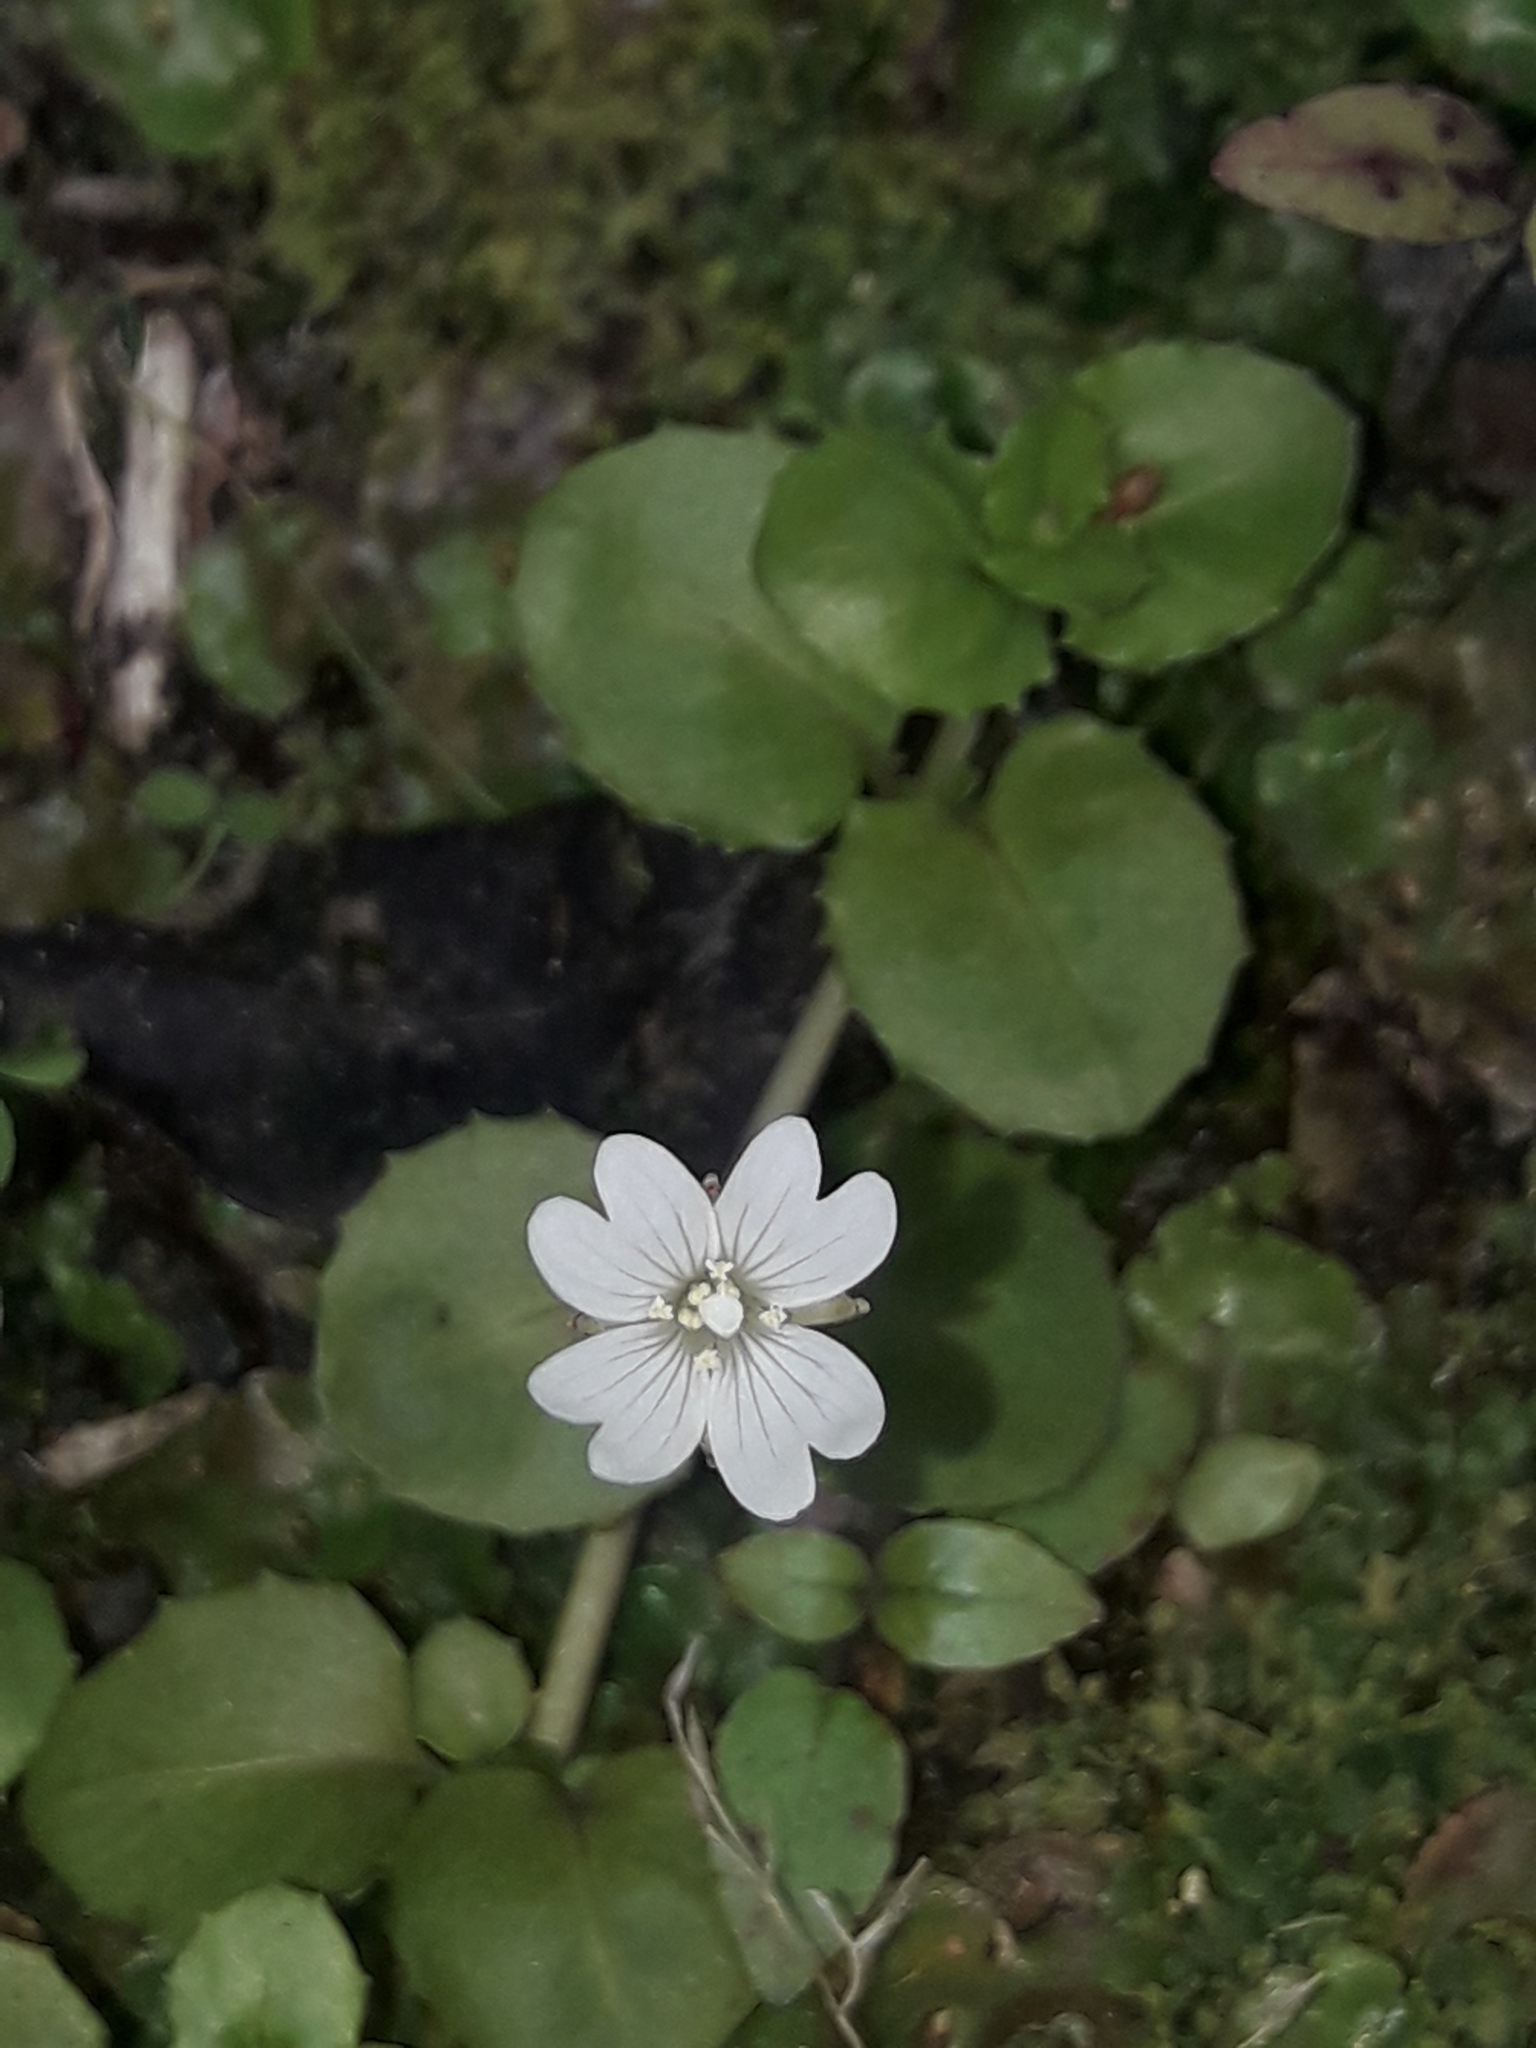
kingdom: Plantae
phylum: Tracheophyta
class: Magnoliopsida
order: Myrtales
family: Onagraceae
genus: Epilobium
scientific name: Epilobium pedunculare
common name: Rockery willowherb
